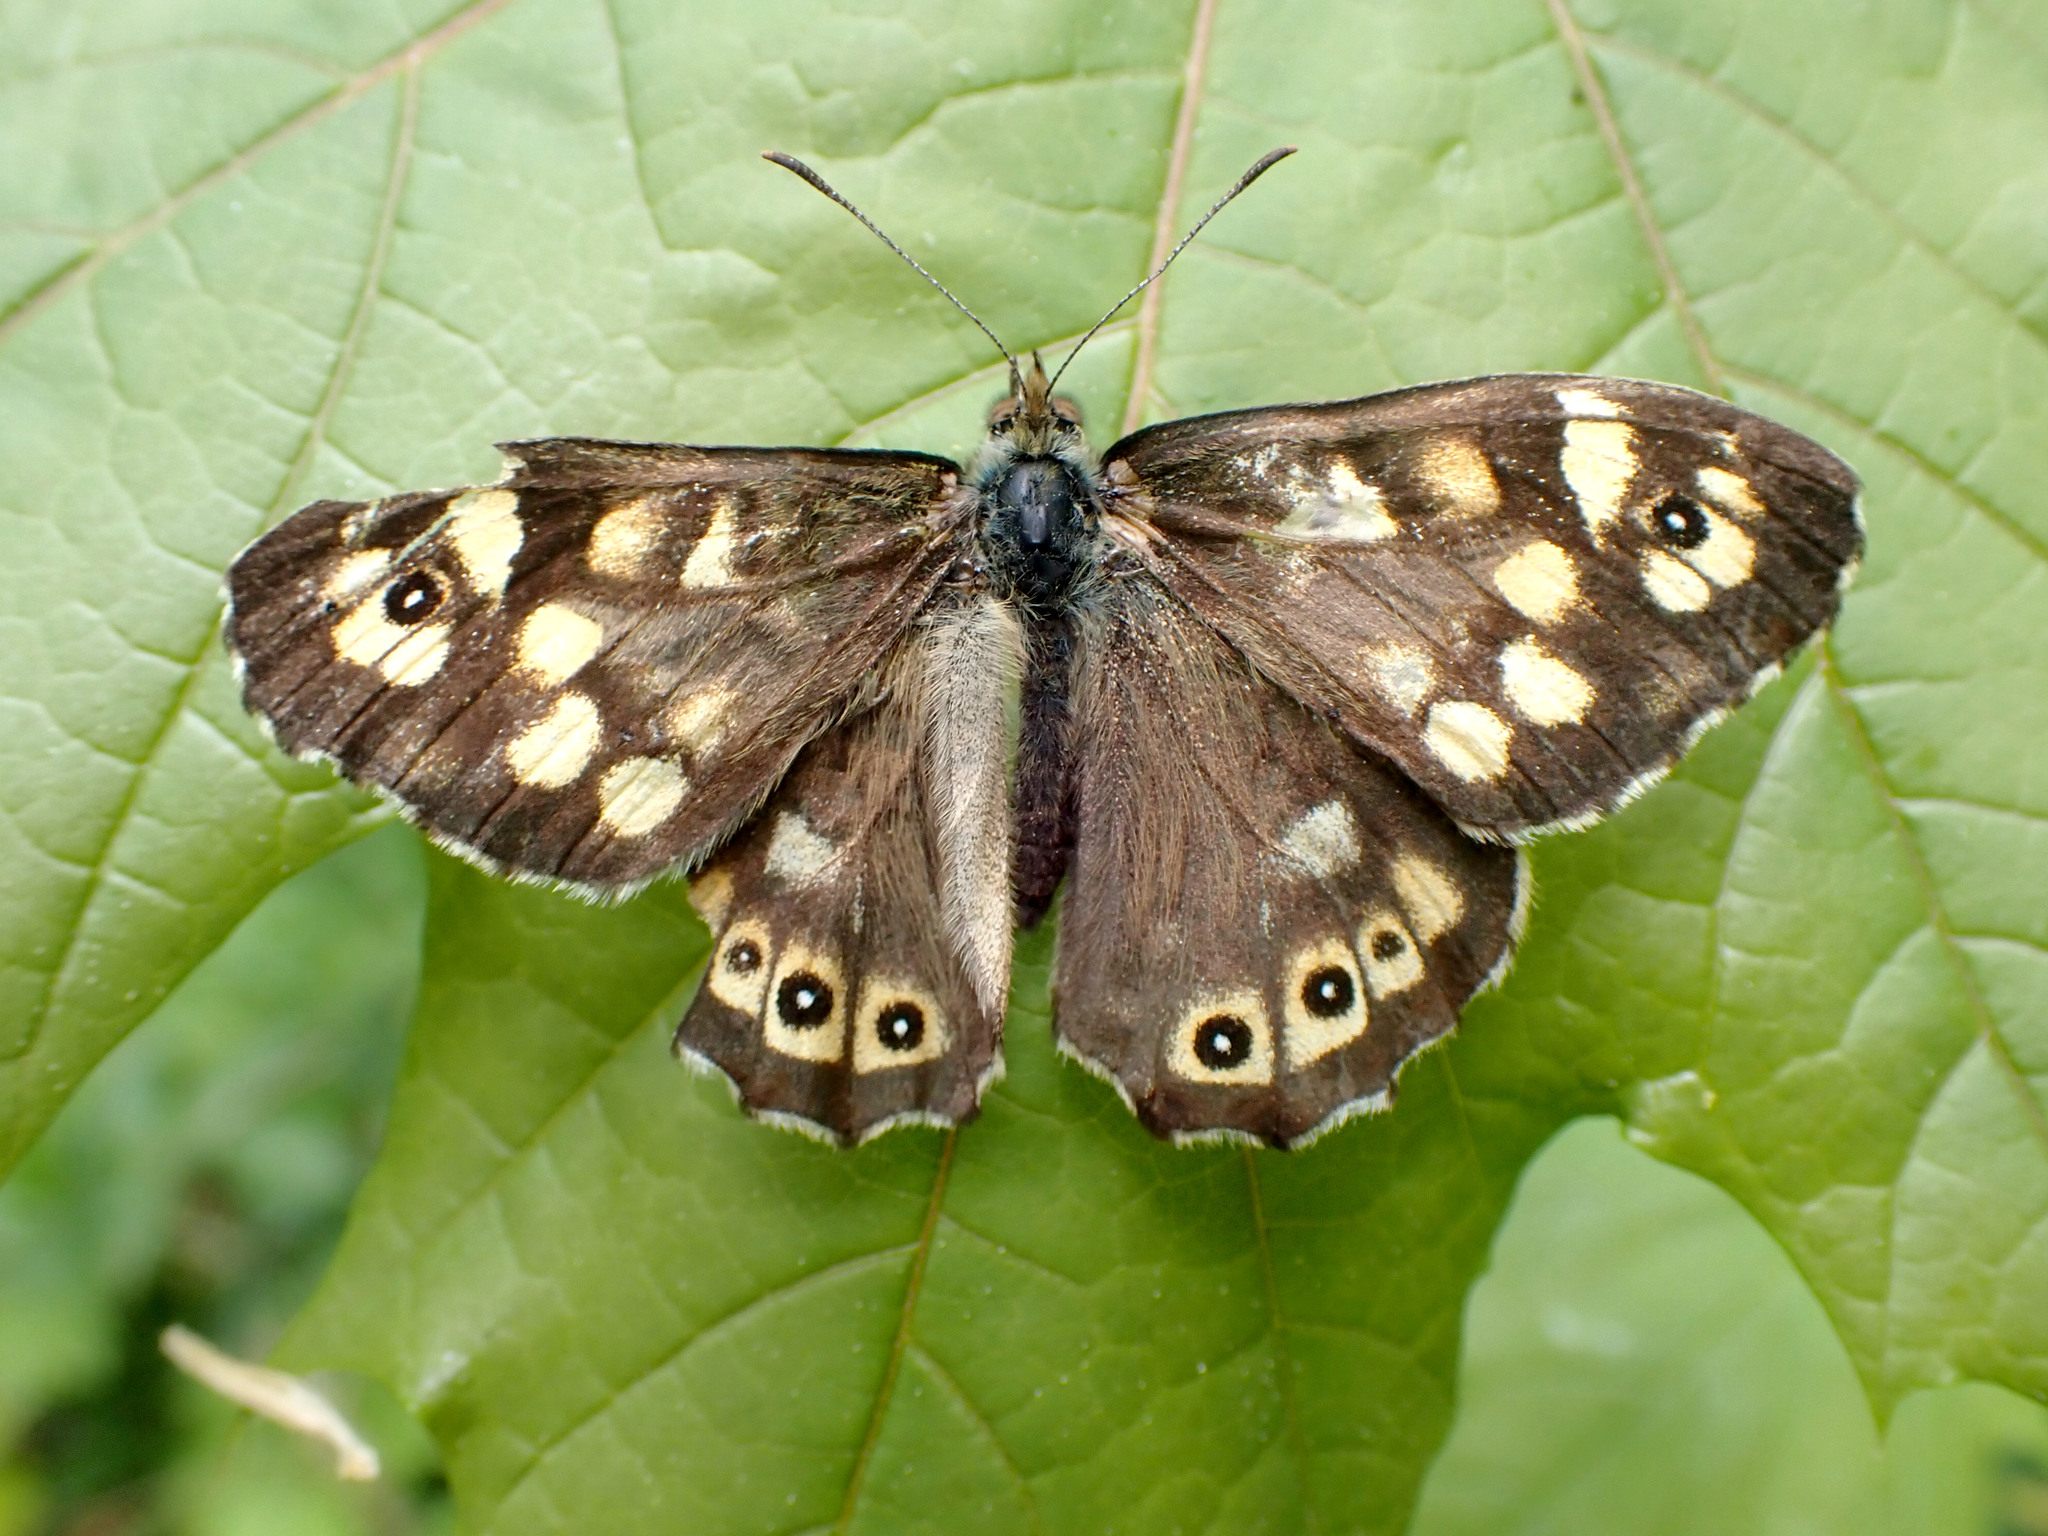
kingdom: Animalia
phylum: Arthropoda
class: Insecta
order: Lepidoptera
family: Nymphalidae
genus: Pararge
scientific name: Pararge aegeria
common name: Speckled wood
